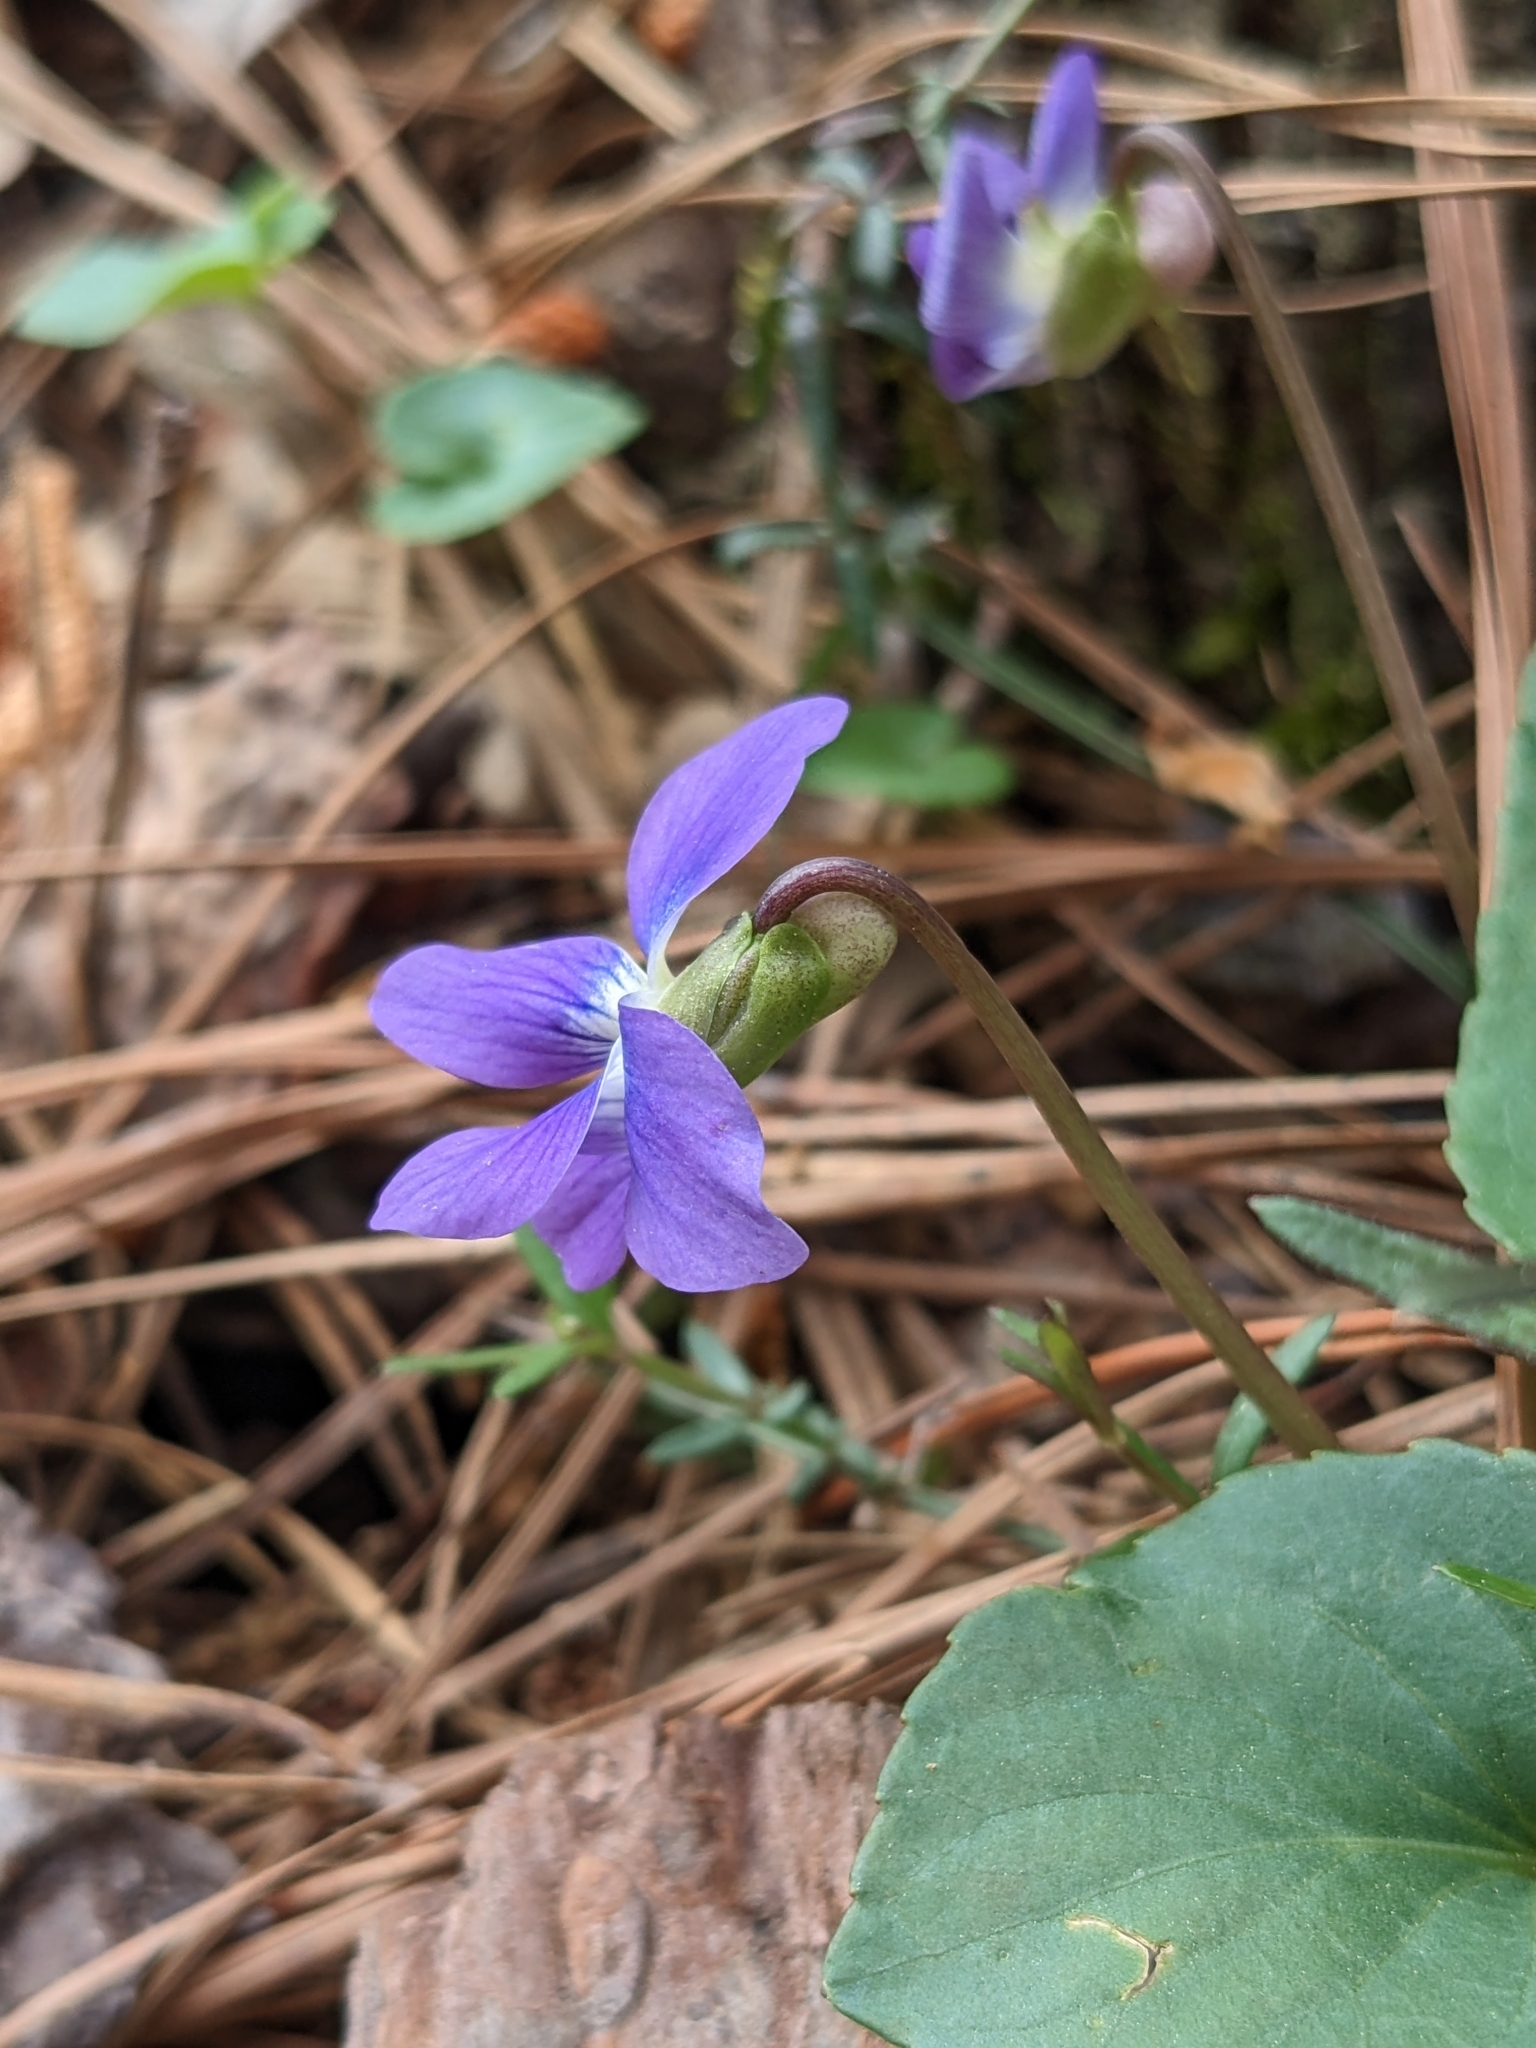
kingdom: Plantae
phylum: Tracheophyta
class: Magnoliopsida
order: Malpighiales
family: Violaceae
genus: Viola
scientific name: Viola sororia
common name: Dooryard violet
